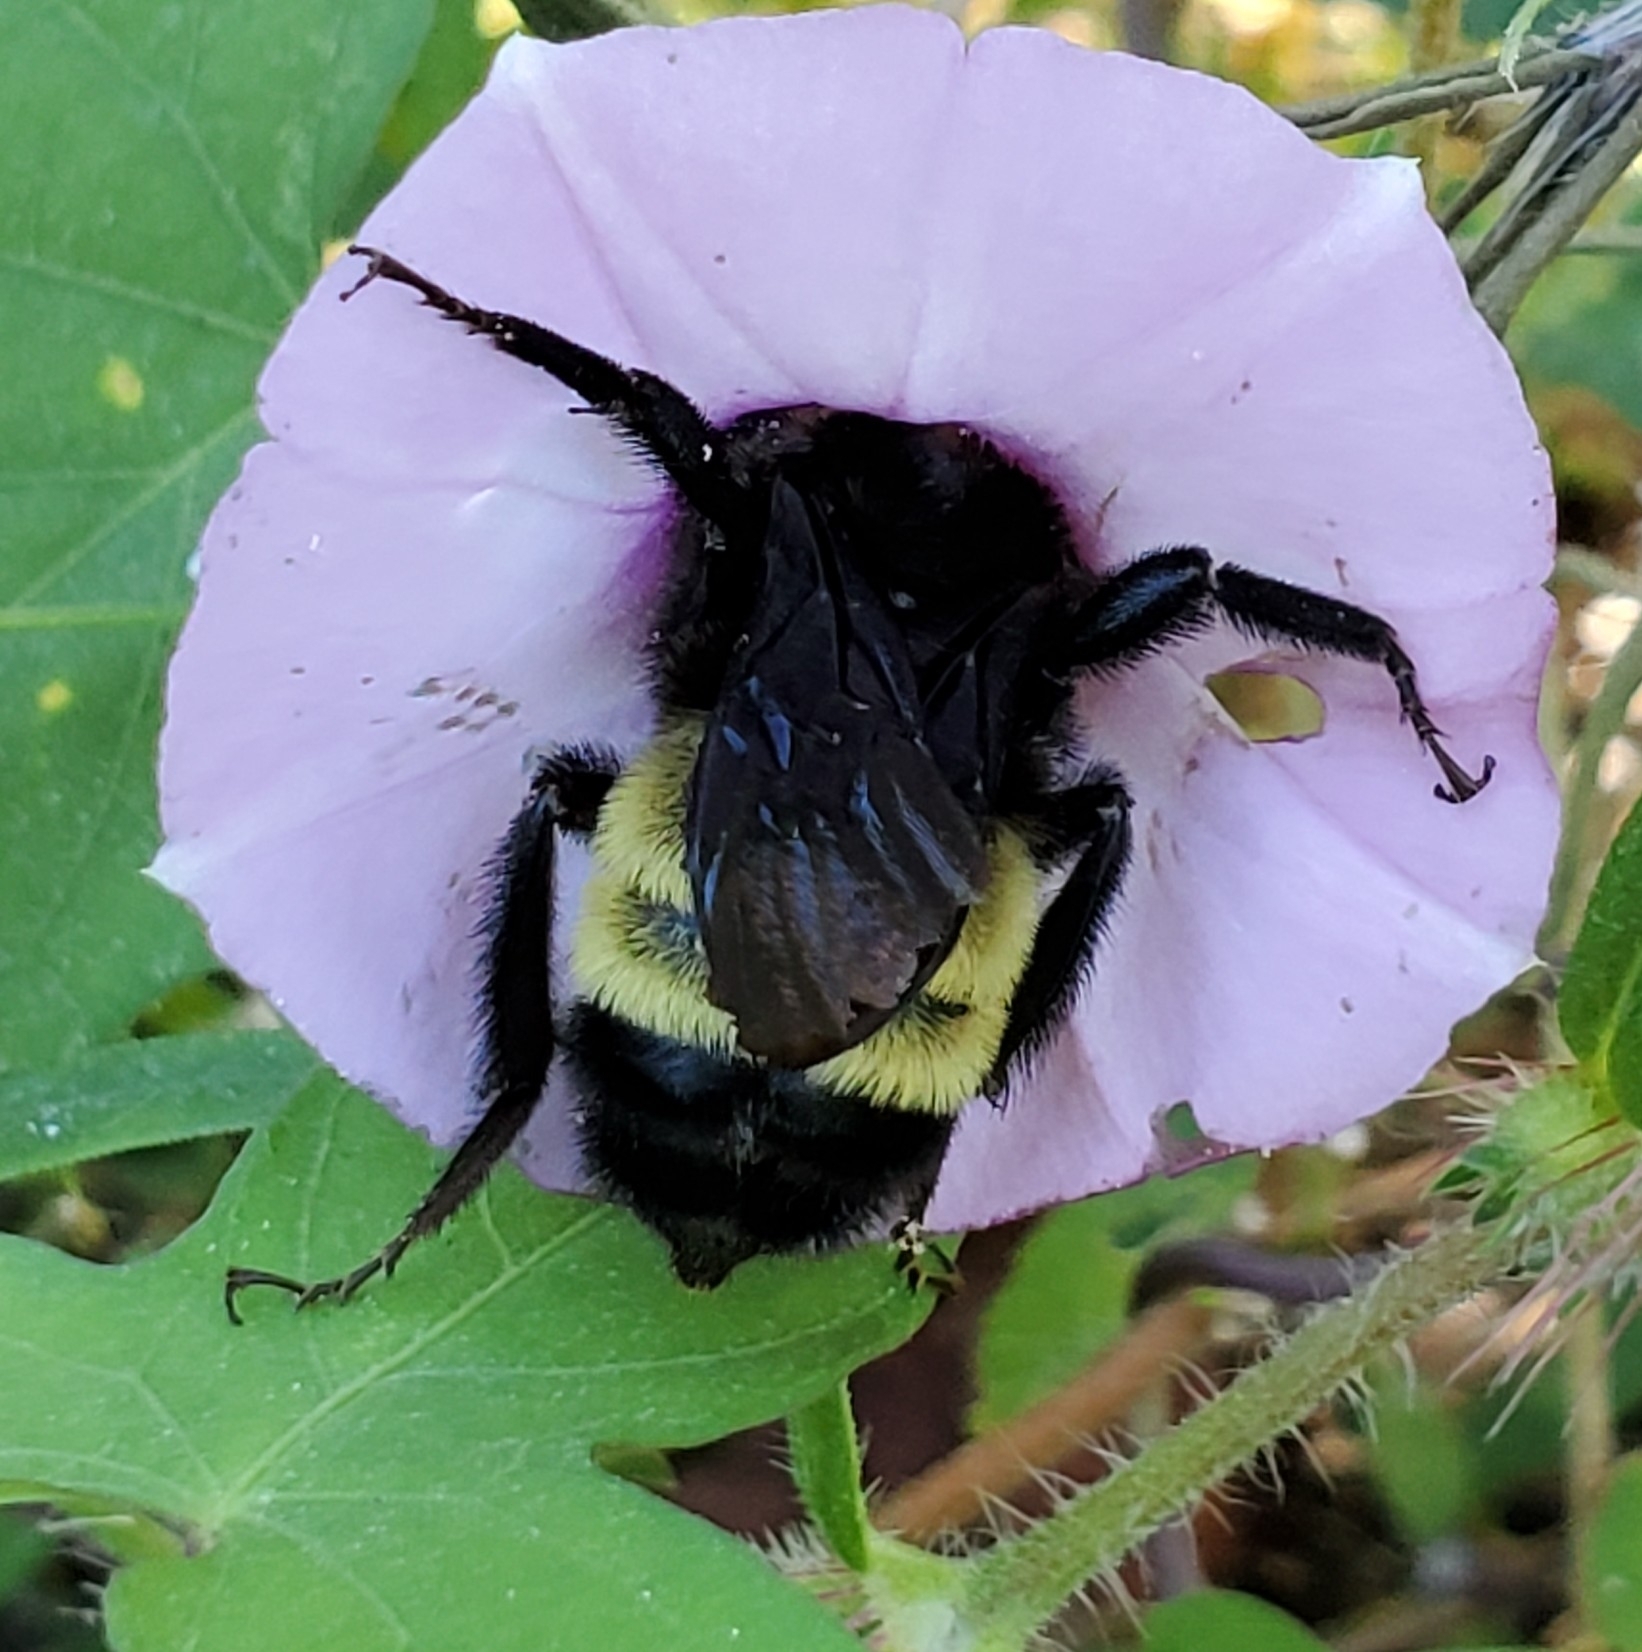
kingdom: Animalia
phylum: Arthropoda
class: Insecta
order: Hymenoptera
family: Apidae
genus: Bombus
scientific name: Bombus pensylvanicus
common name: Bumble bee
